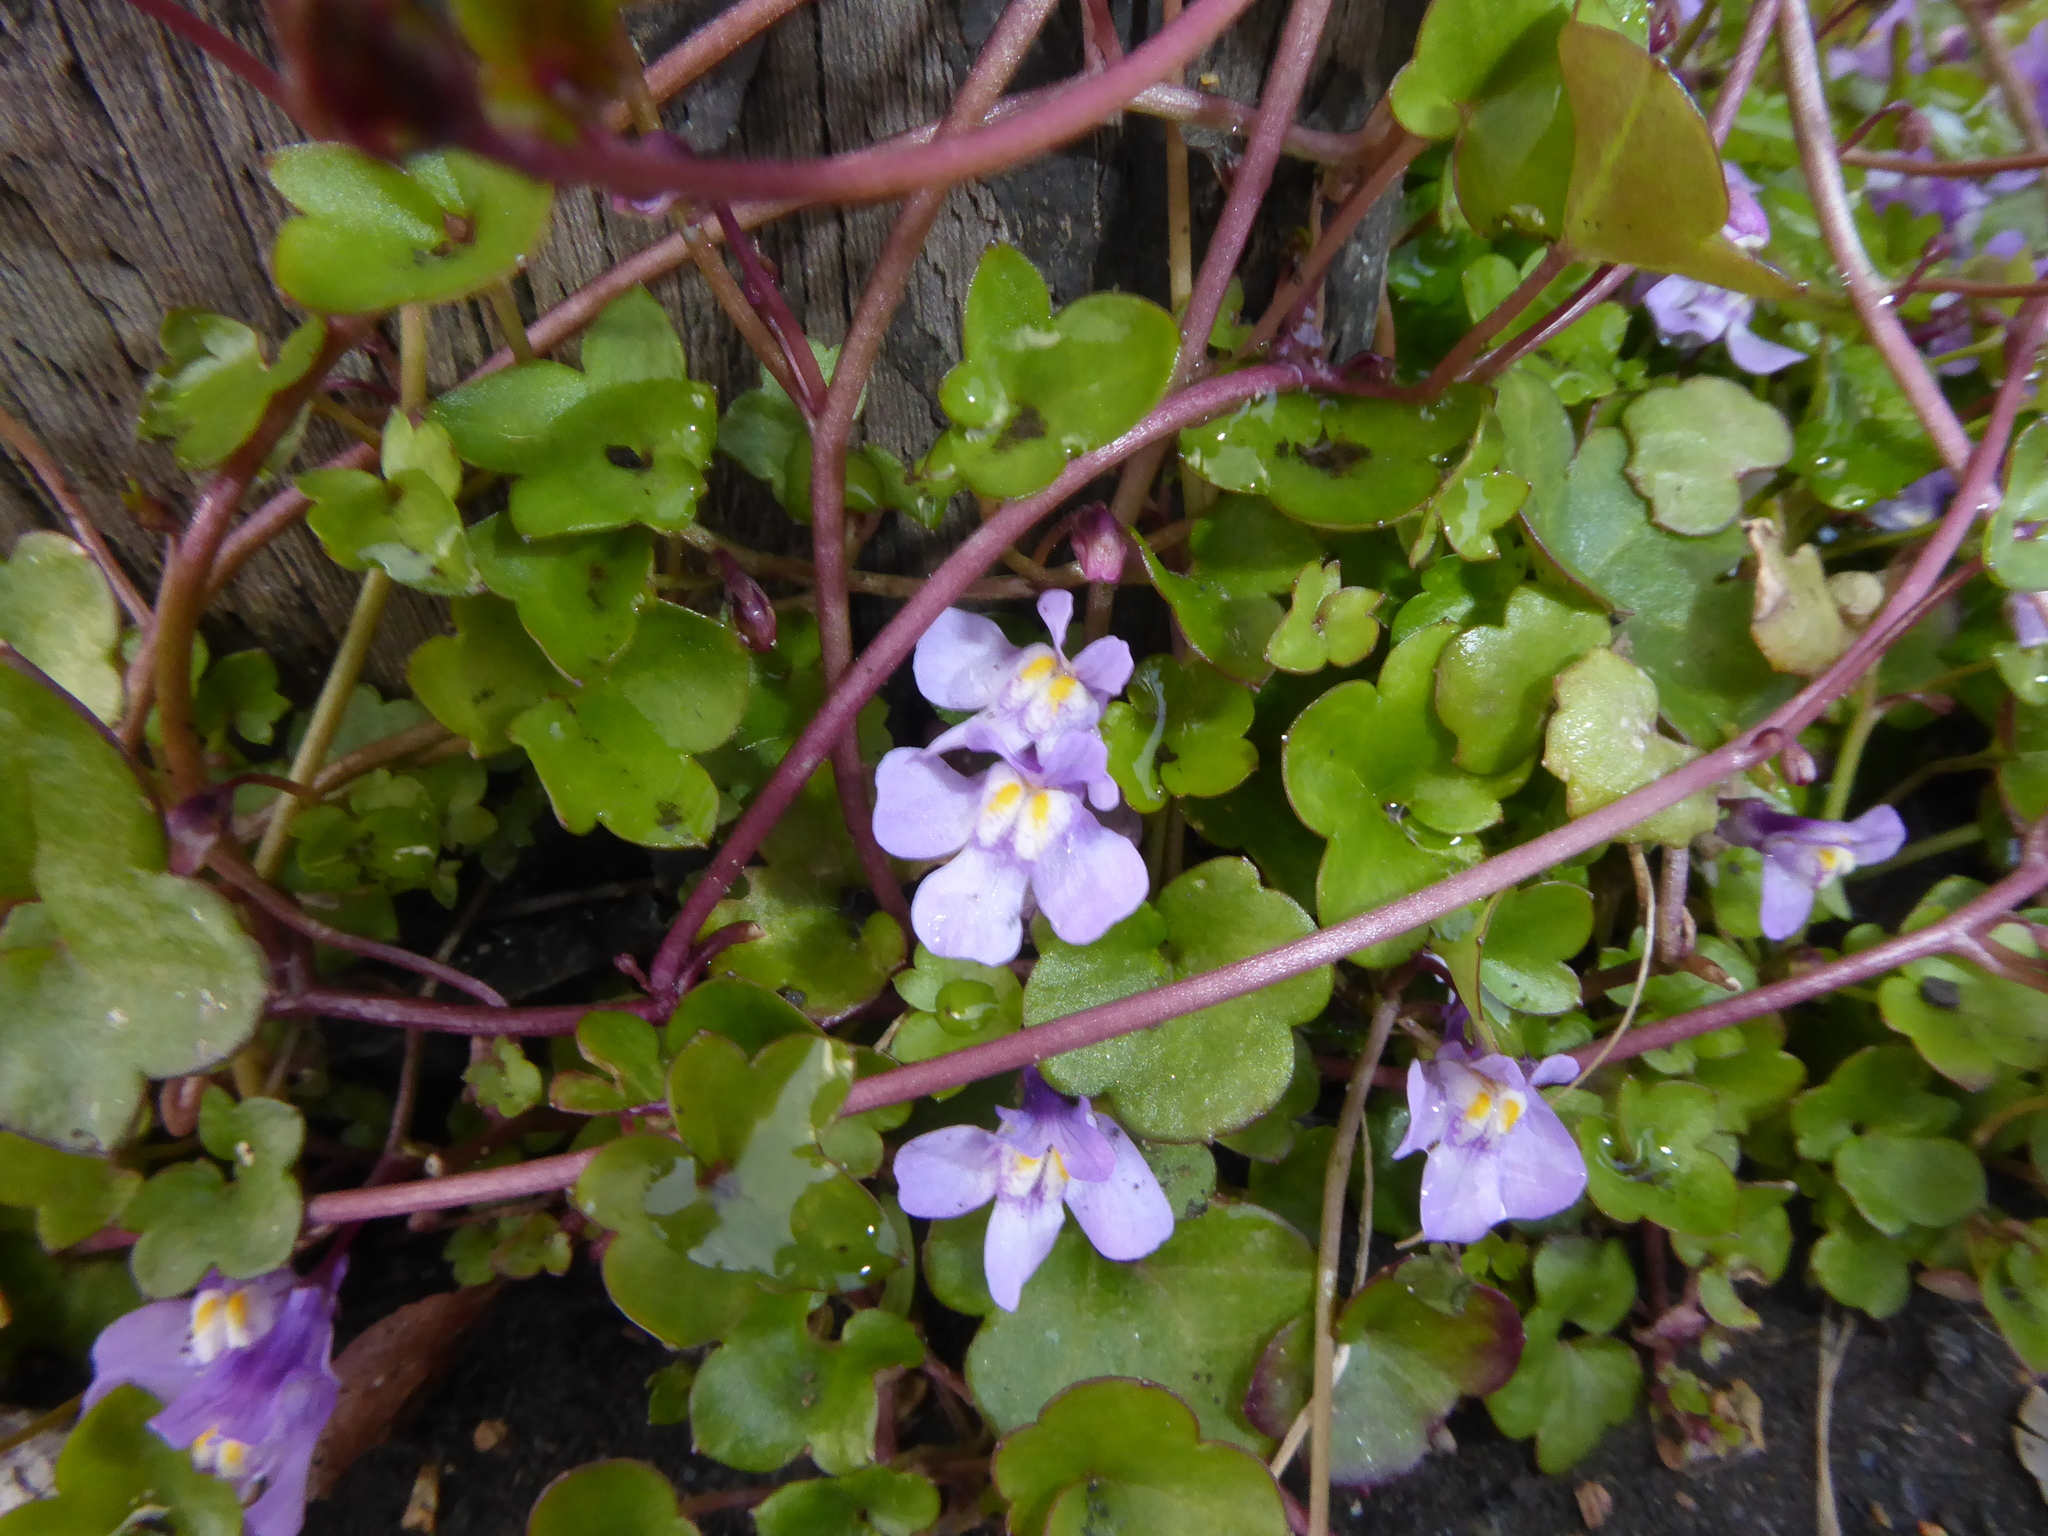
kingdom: Plantae
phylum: Tracheophyta
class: Magnoliopsida
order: Lamiales
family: Plantaginaceae
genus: Cymbalaria
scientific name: Cymbalaria muralis
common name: Ivy-leaved toadflax
